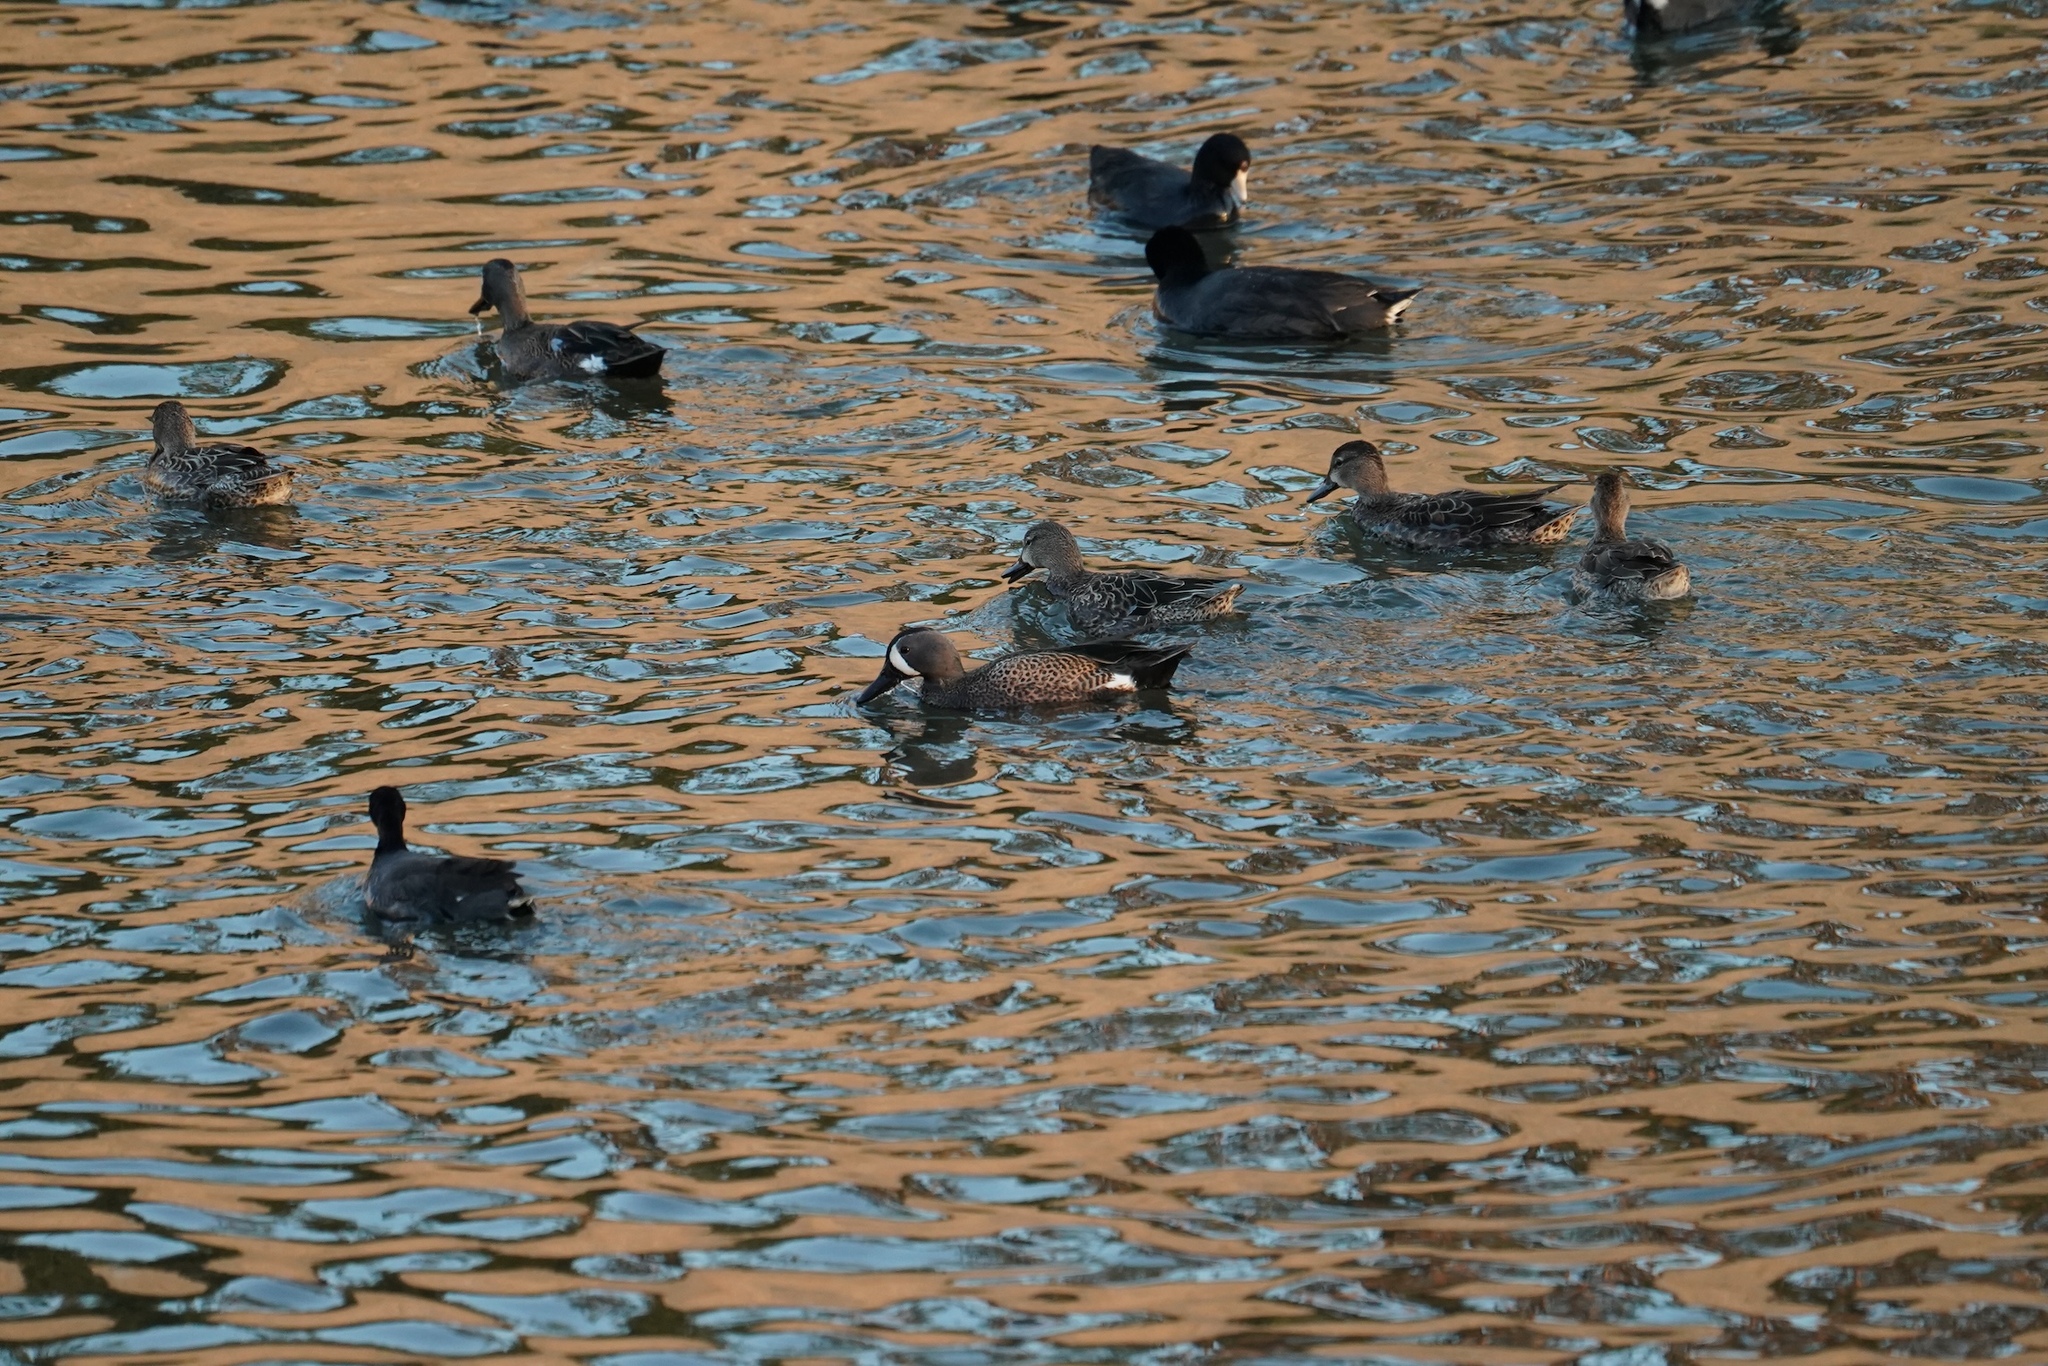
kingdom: Animalia
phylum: Chordata
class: Aves
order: Anseriformes
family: Anatidae
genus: Spatula
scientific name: Spatula discors
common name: Blue-winged teal
